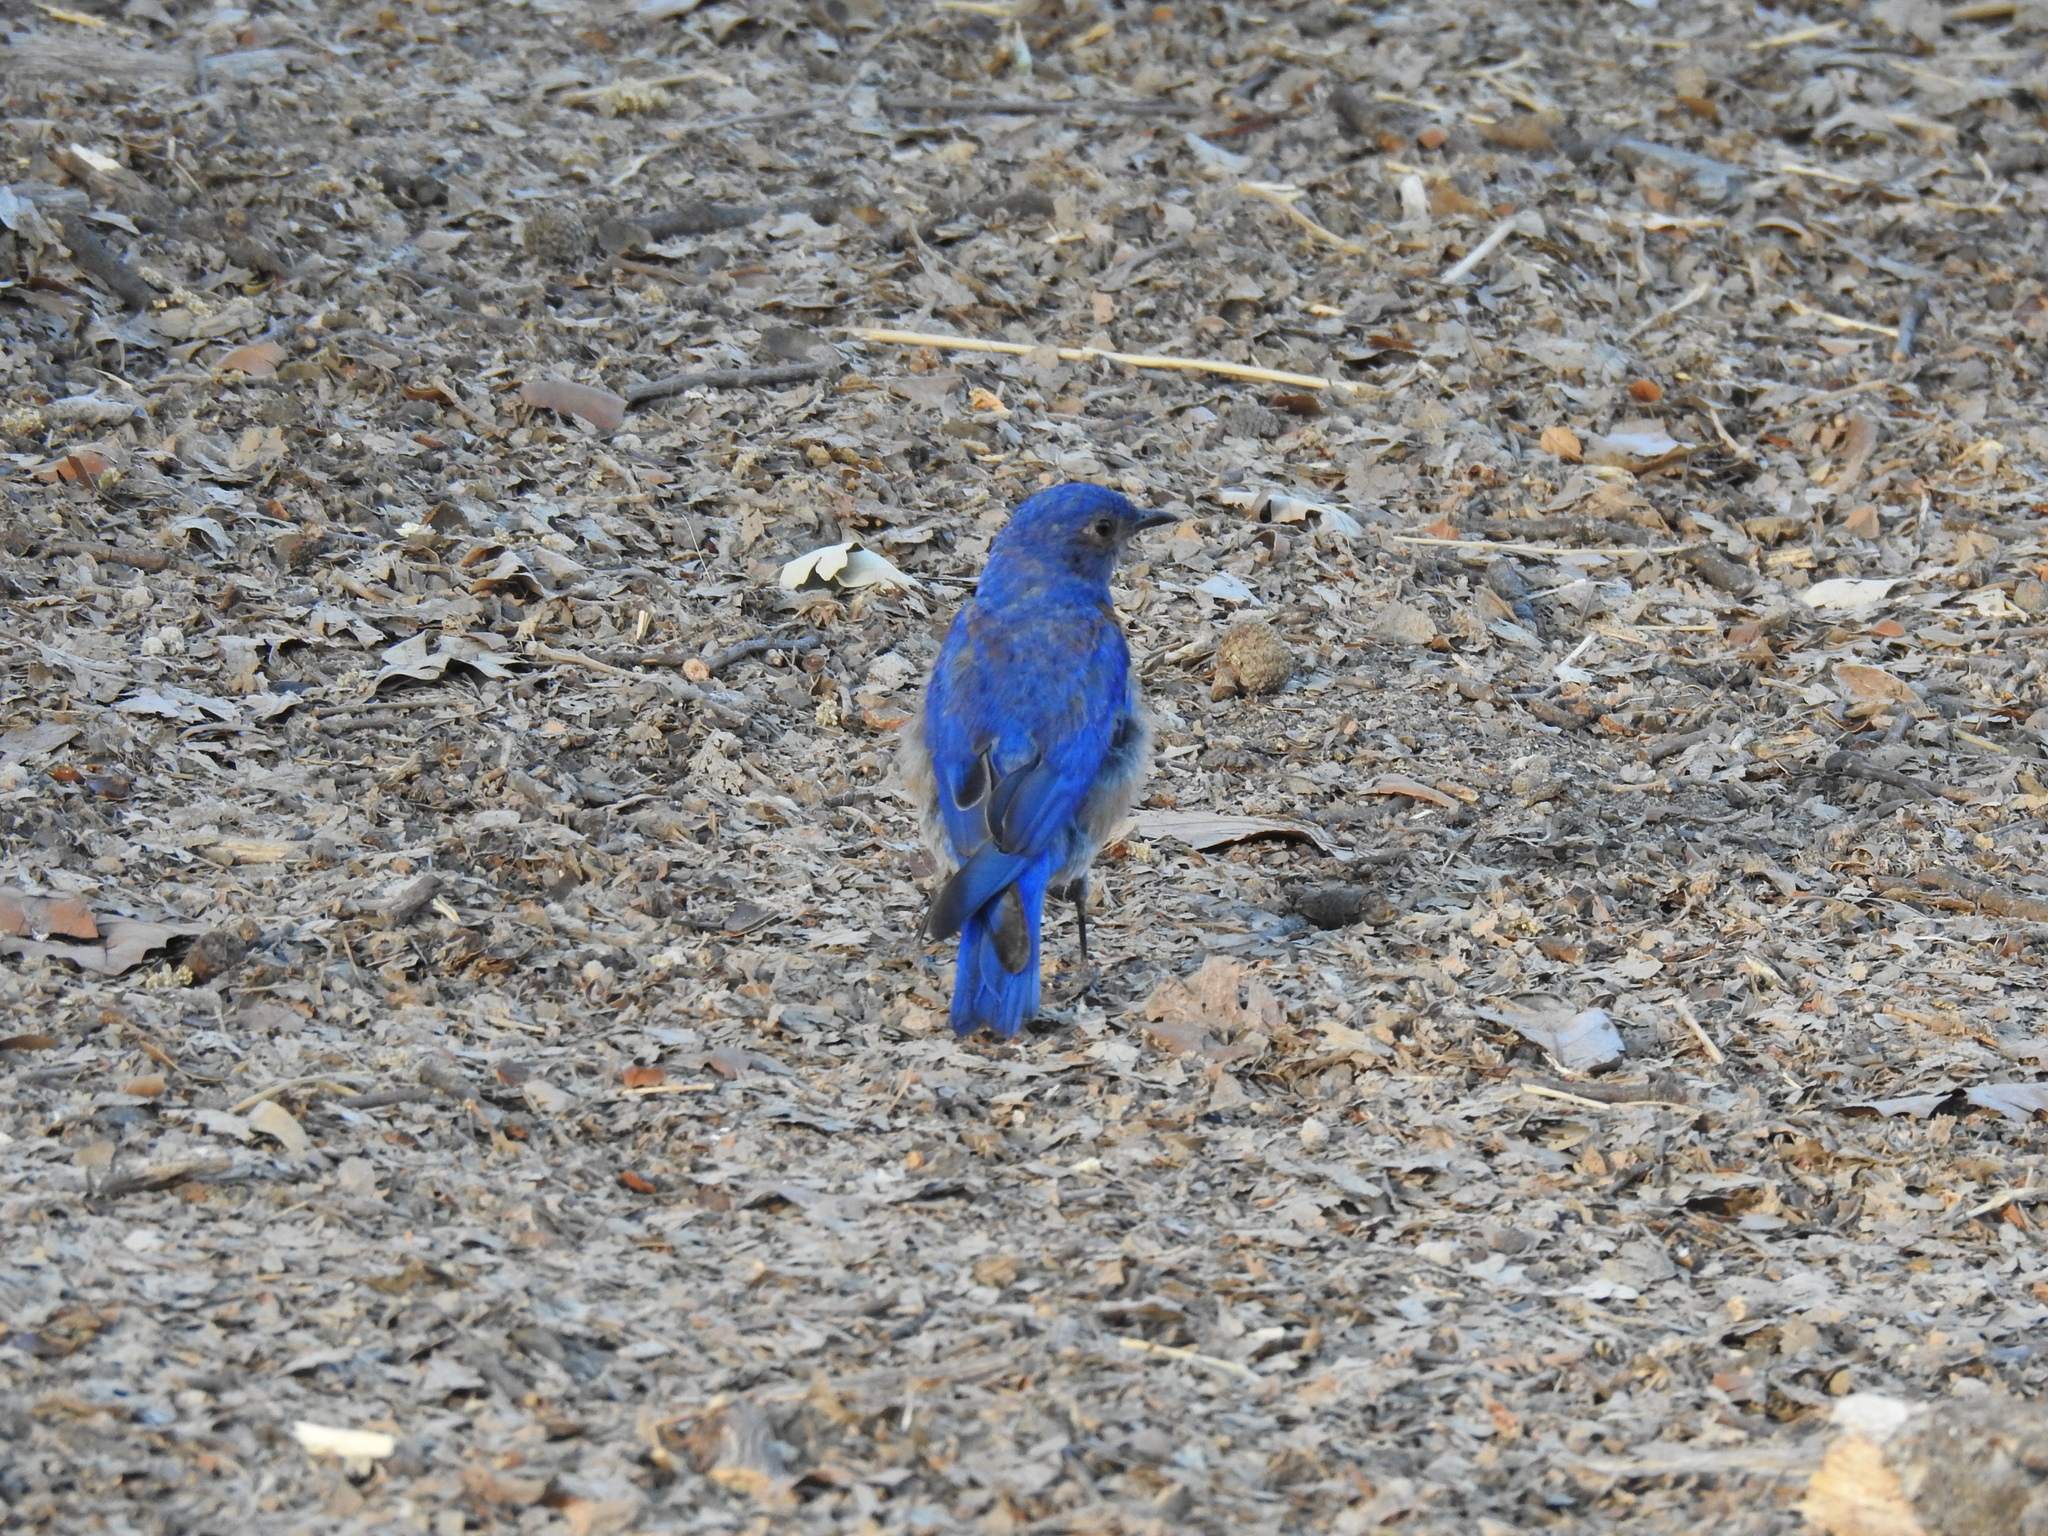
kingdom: Animalia
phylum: Chordata
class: Aves
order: Passeriformes
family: Turdidae
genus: Sialia
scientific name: Sialia mexicana
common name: Western bluebird
